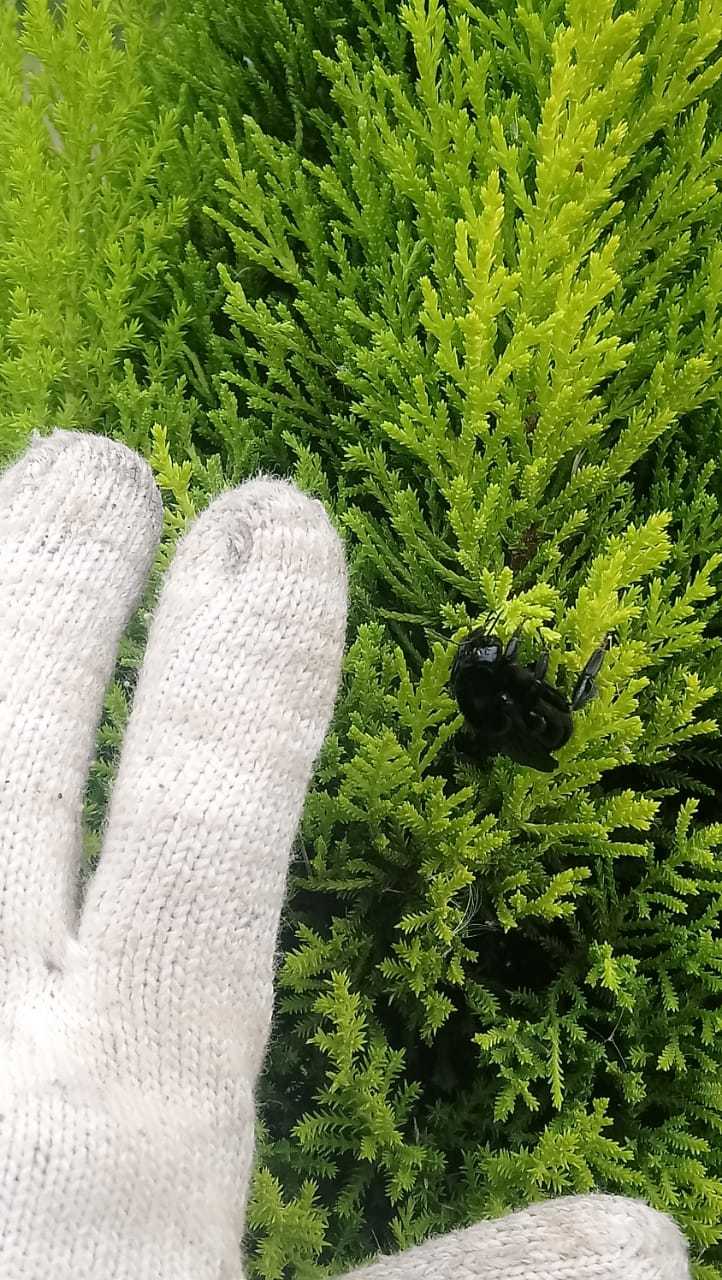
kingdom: Animalia
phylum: Arthropoda
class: Insecta
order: Hymenoptera
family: Apidae
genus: Bombus
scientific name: Bombus pauloensis
